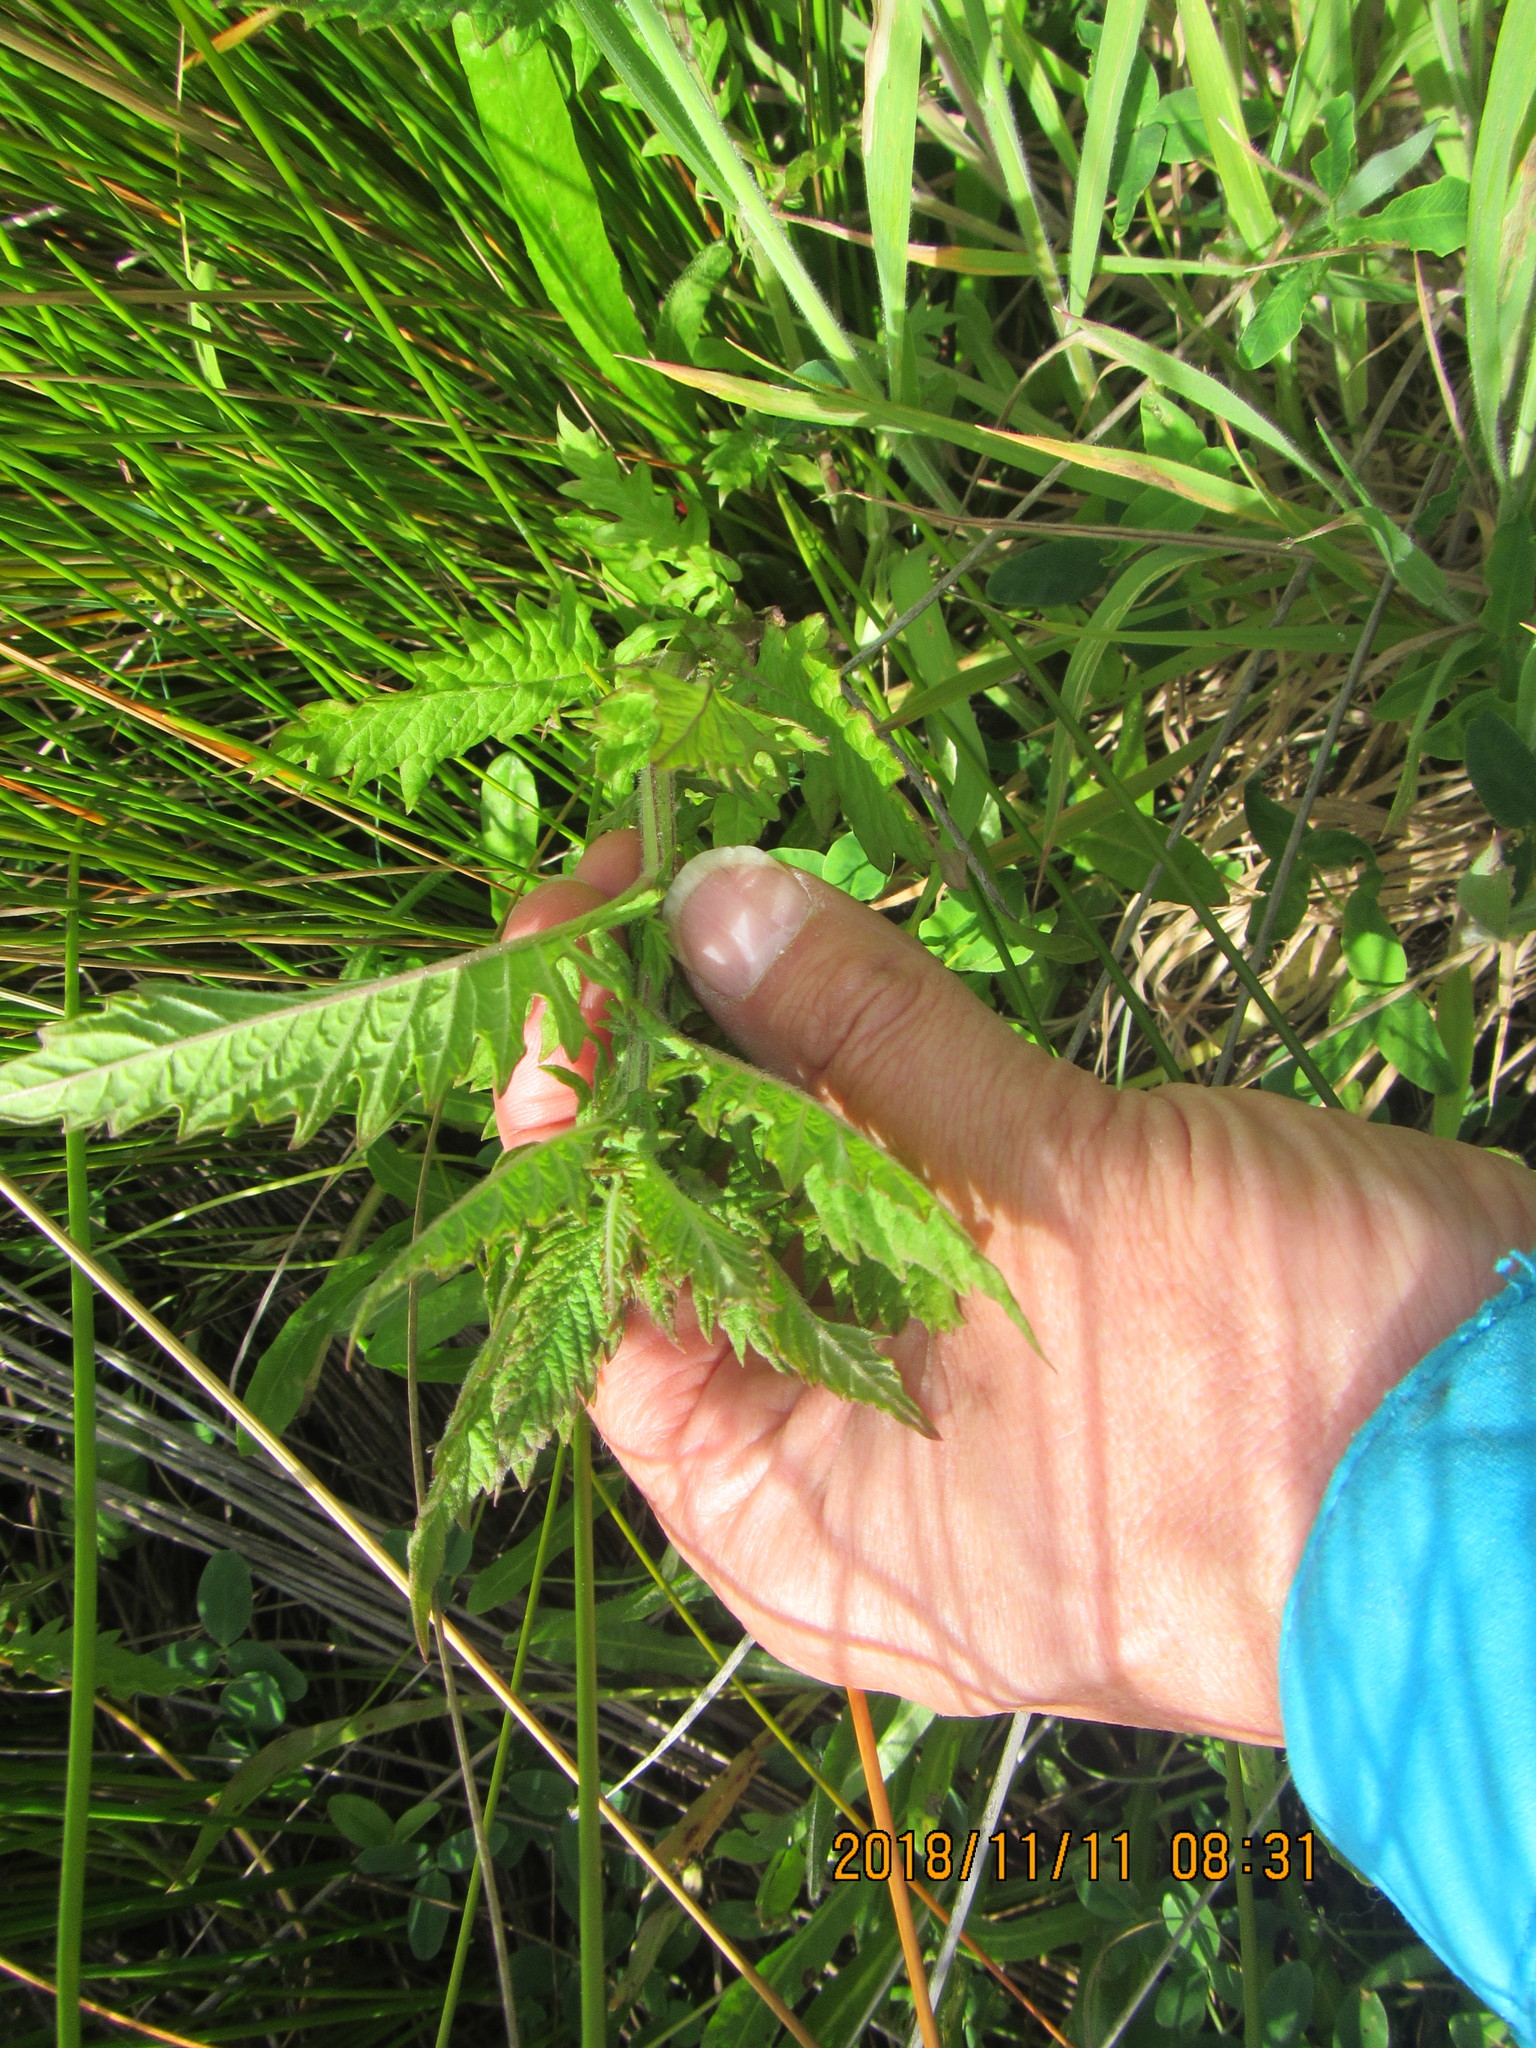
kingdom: Plantae
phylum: Tracheophyta
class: Magnoliopsida
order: Lamiales
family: Lamiaceae
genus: Lycopus
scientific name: Lycopus europaeus
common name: European bugleweed
